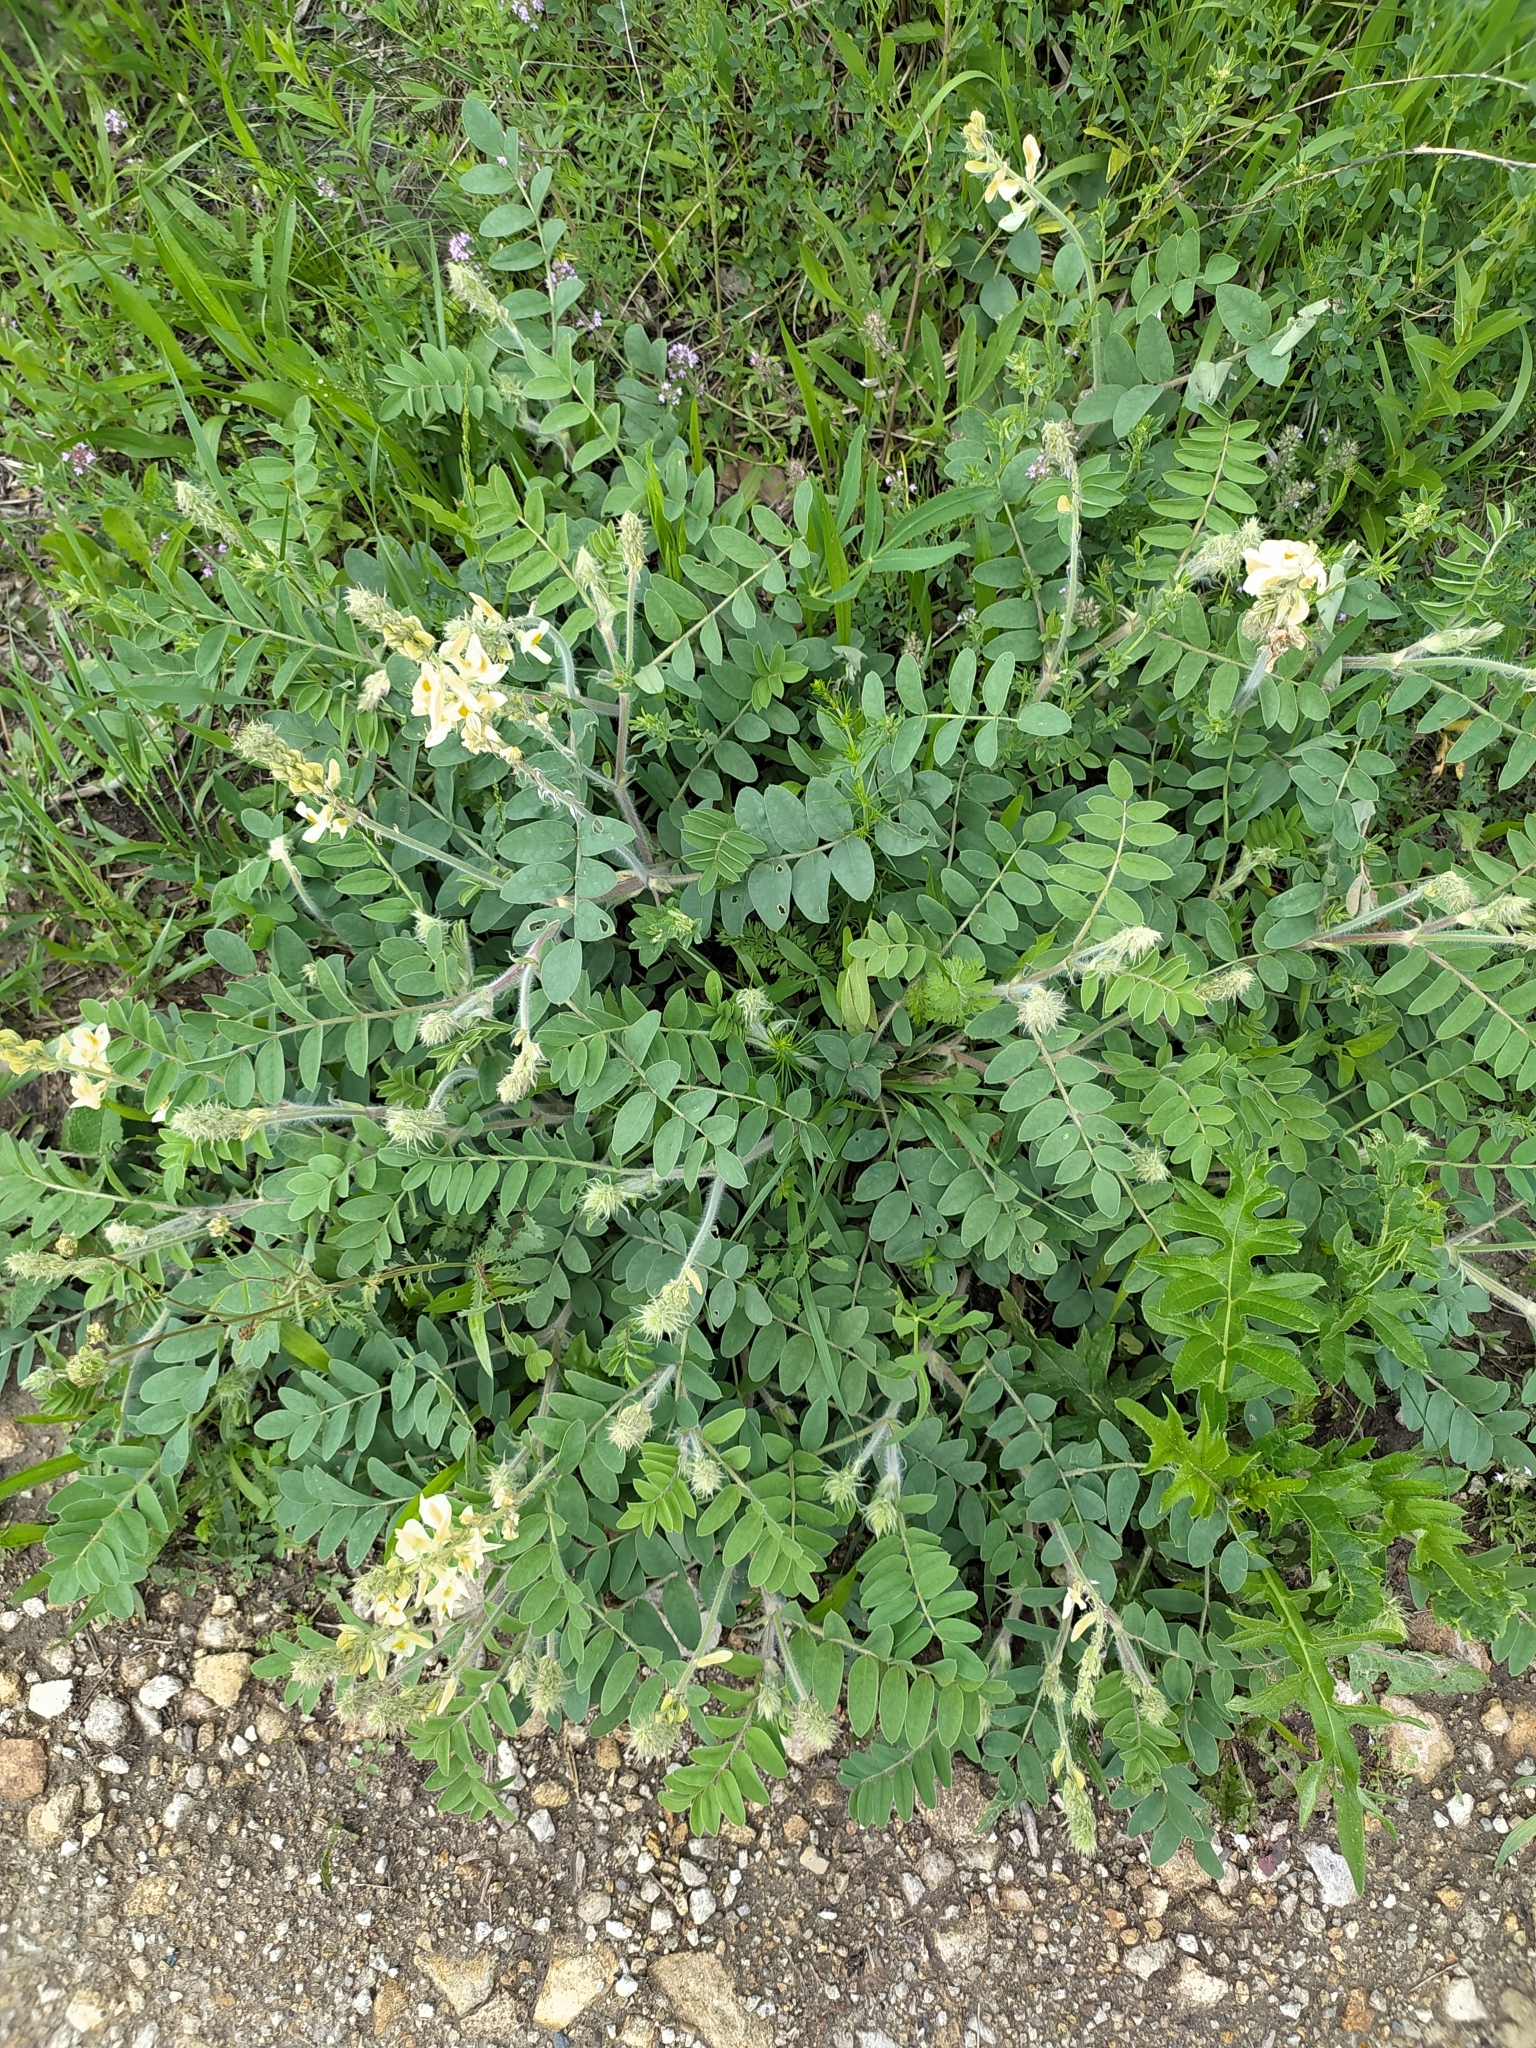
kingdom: Plantae
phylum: Tracheophyta
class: Magnoliopsida
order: Fabales
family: Fabaceae
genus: Onobrychis
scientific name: Onobrychis vassilczenkoi
